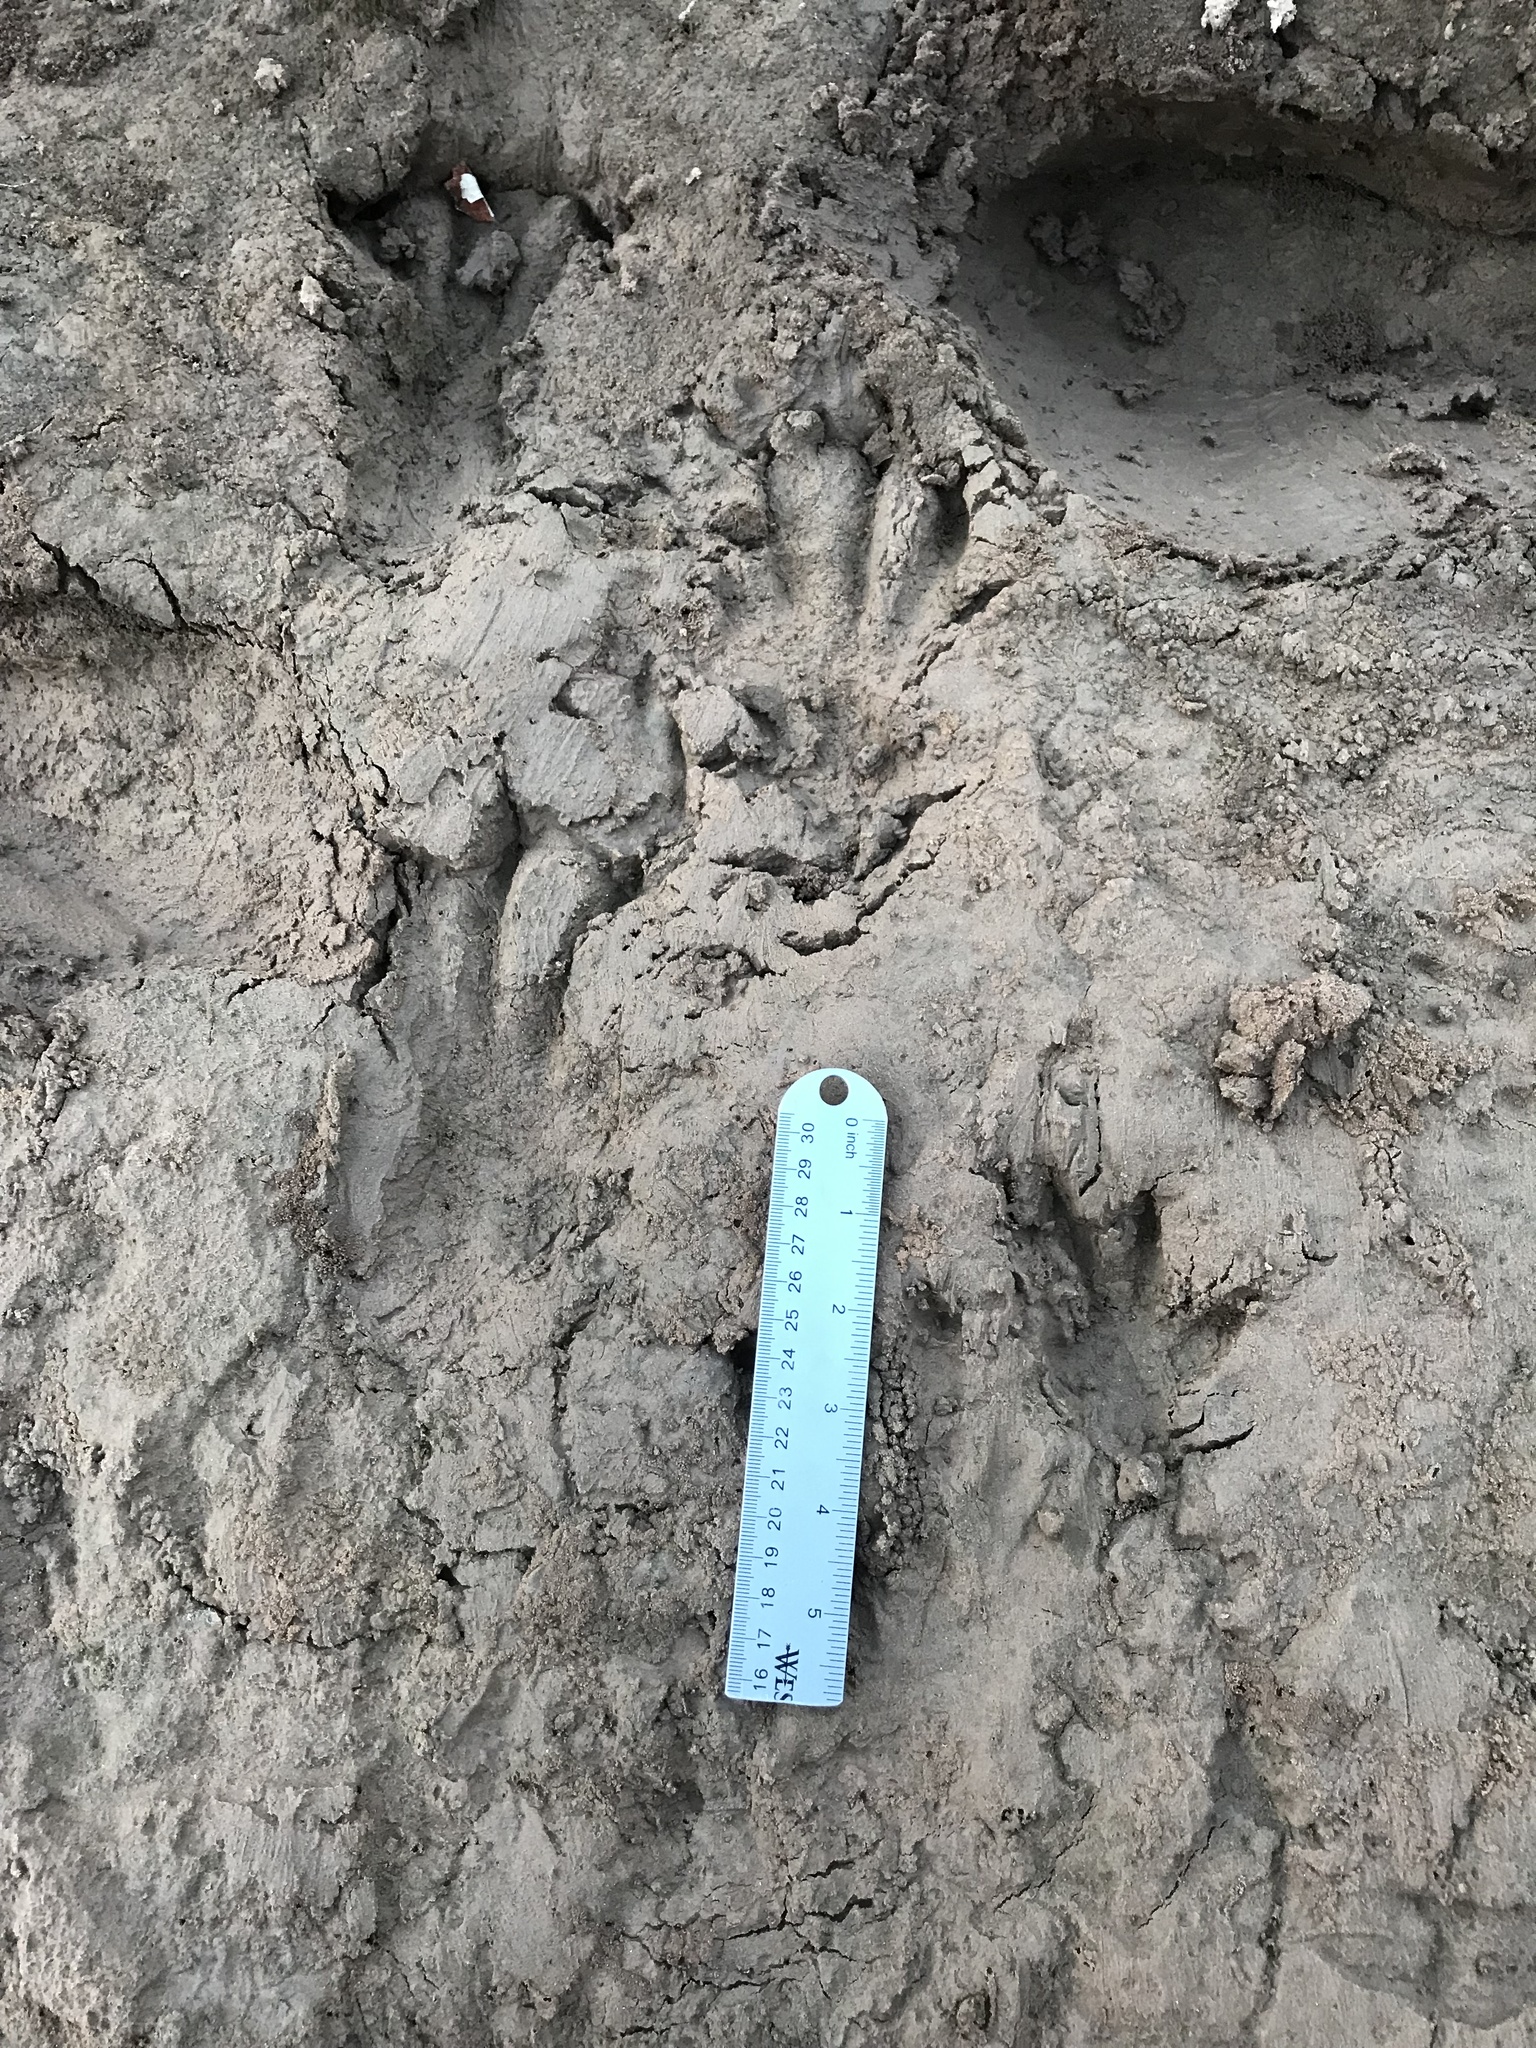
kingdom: Animalia
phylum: Chordata
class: Mammalia
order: Rodentia
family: Castoridae
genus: Castor
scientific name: Castor canadensis
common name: American beaver
